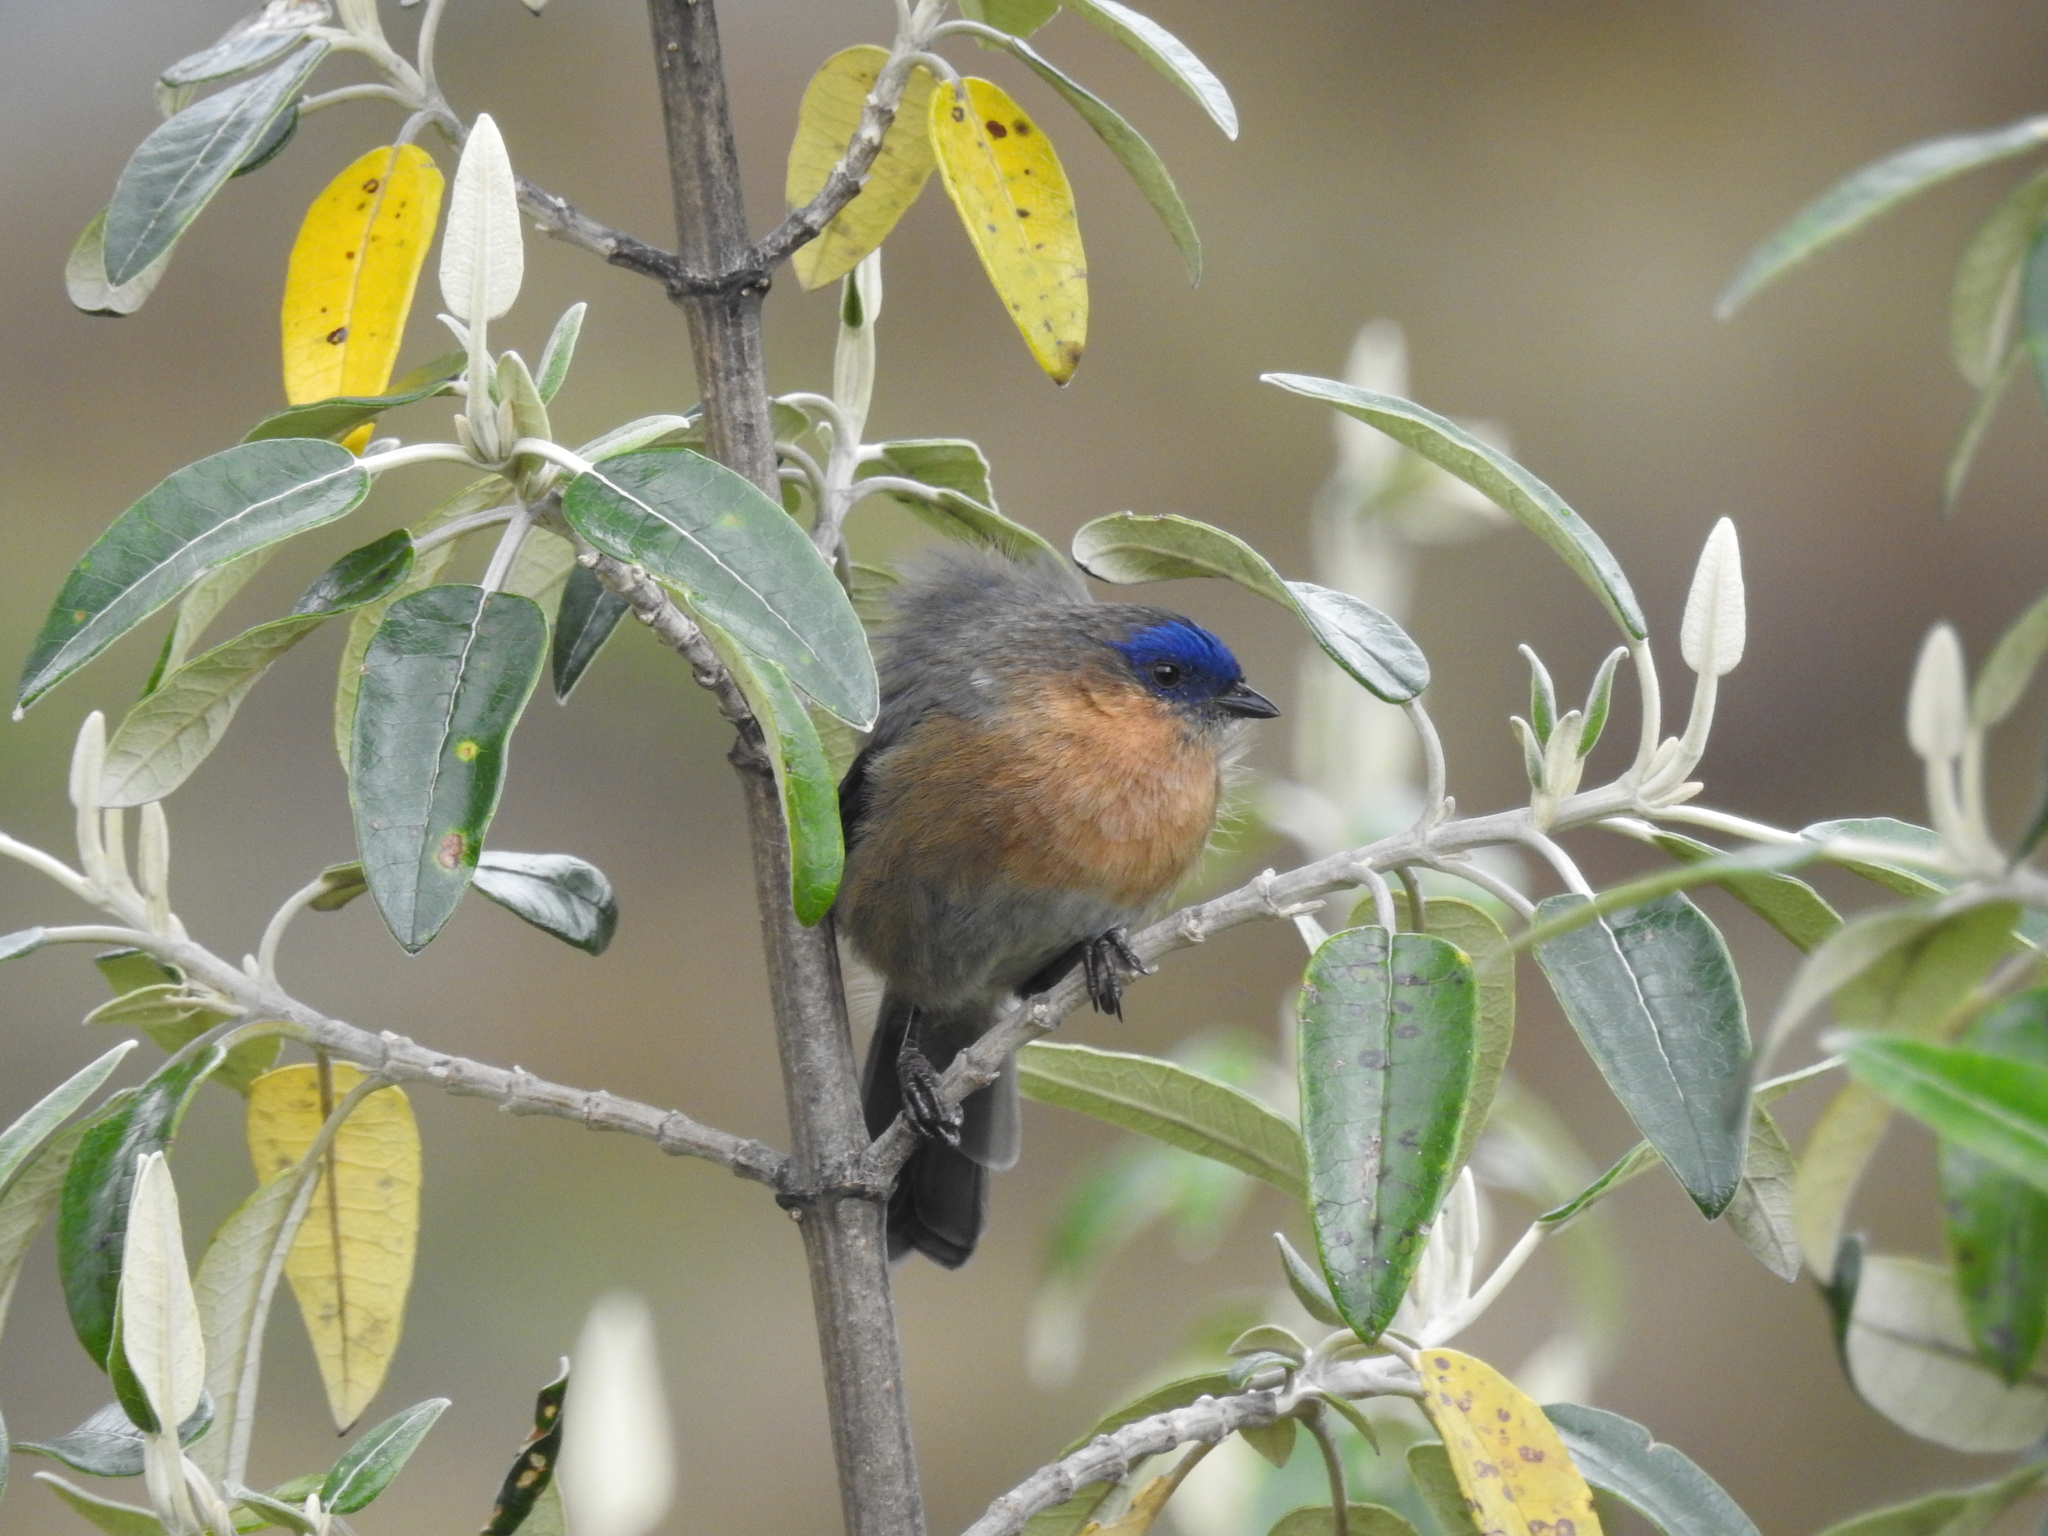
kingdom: Animalia
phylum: Chordata
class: Aves
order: Passeriformes
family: Thraupidae
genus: Xenodacnis
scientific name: Xenodacnis parina
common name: Tit-like dacnis
